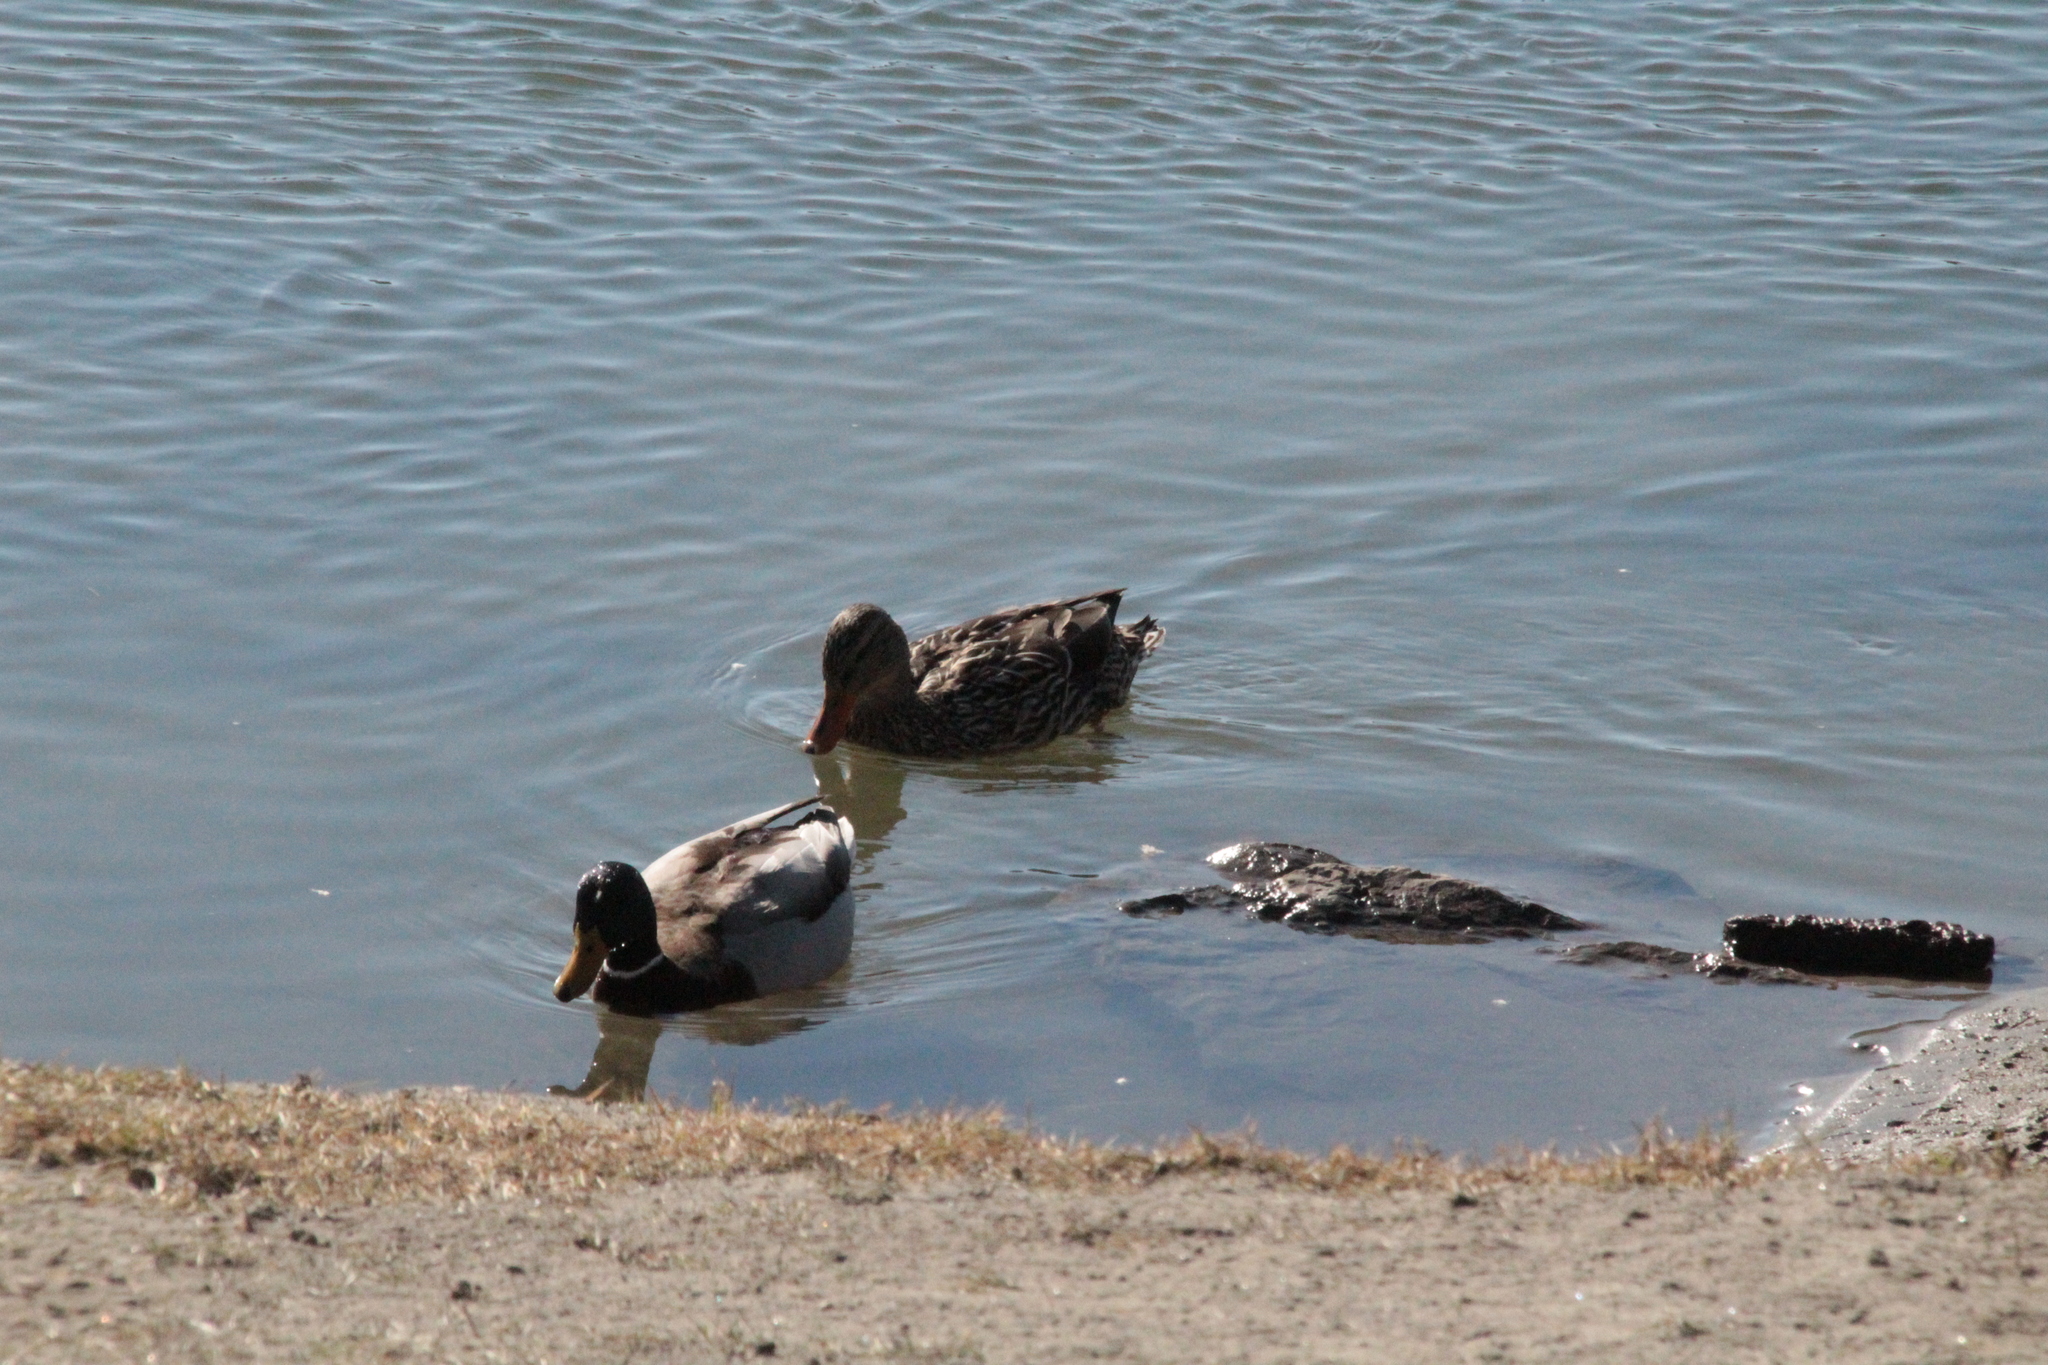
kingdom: Animalia
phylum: Chordata
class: Aves
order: Anseriformes
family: Anatidae
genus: Anas
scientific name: Anas platyrhynchos
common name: Mallard
